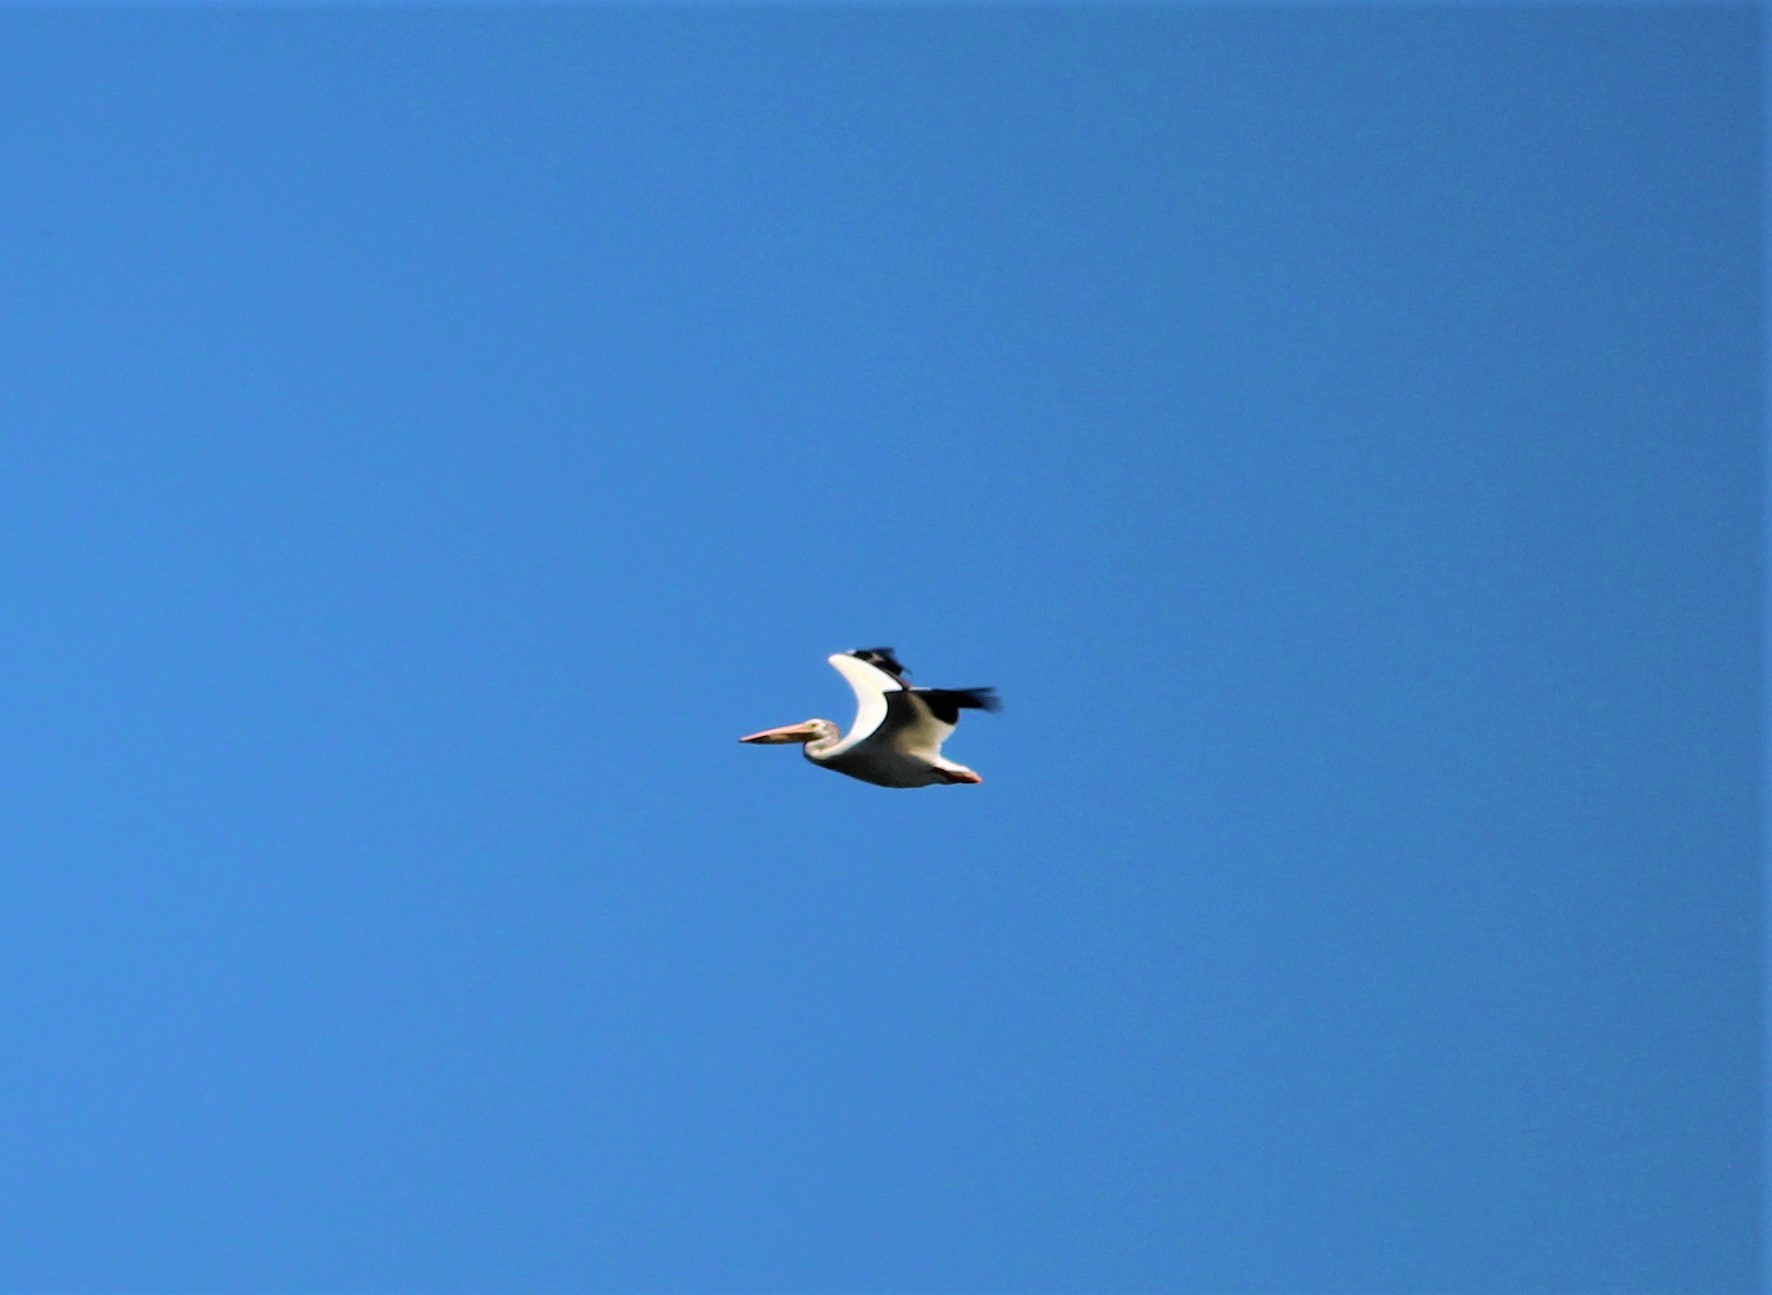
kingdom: Animalia
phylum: Chordata
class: Aves
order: Pelecaniformes
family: Pelecanidae
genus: Pelecanus
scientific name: Pelecanus erythrorhynchos
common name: American white pelican
